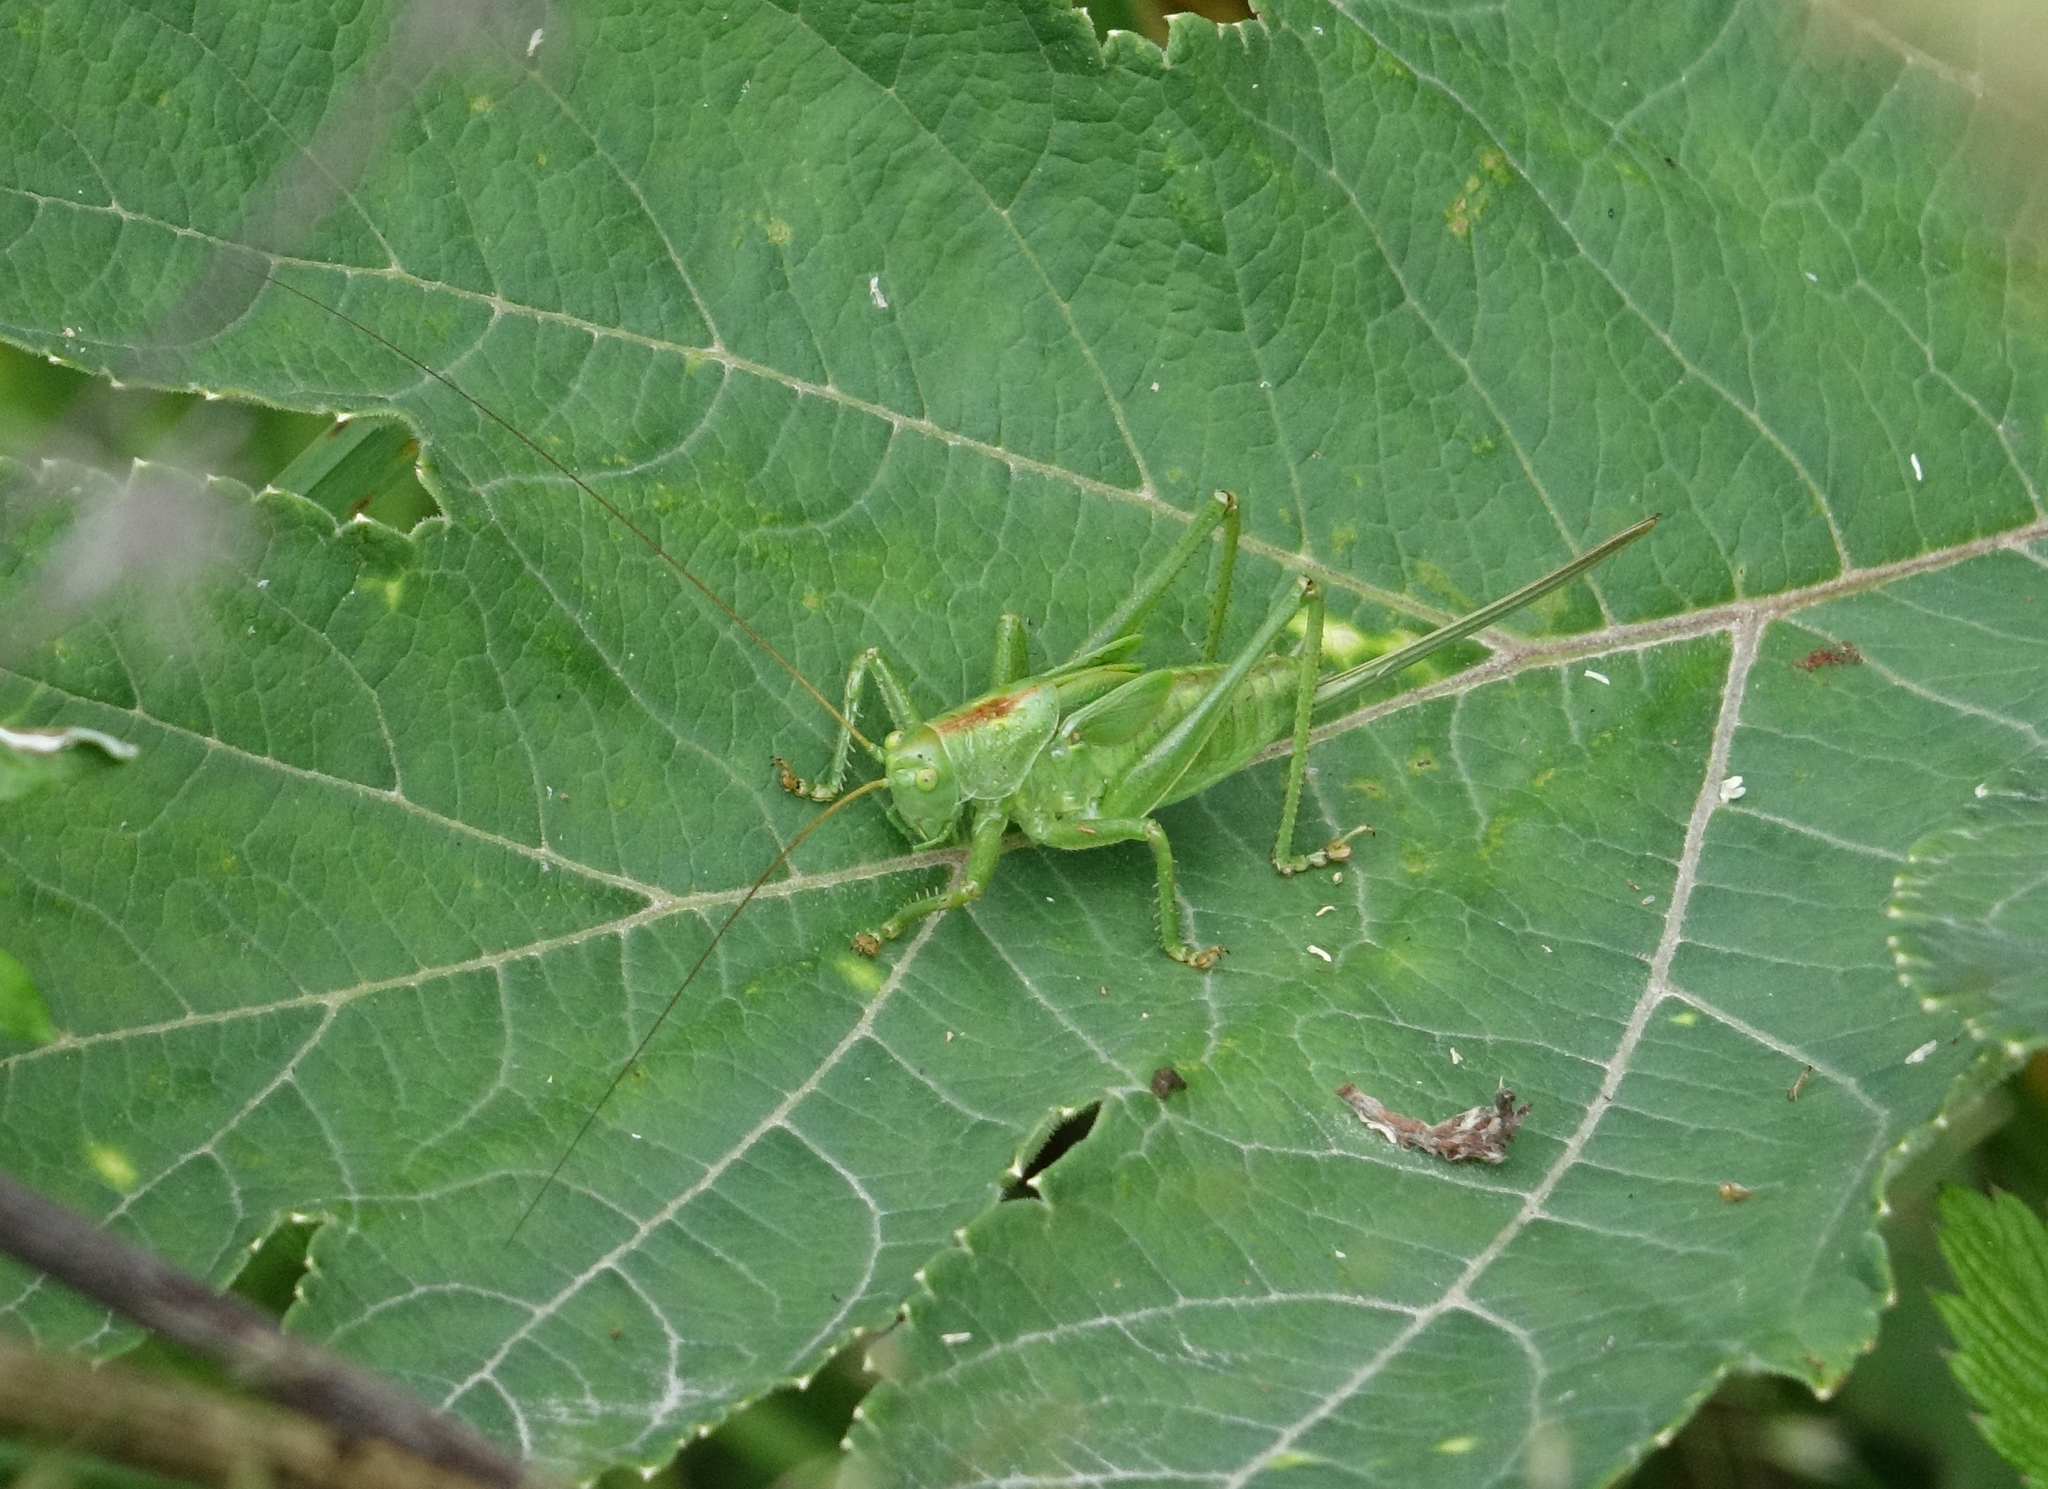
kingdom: Animalia
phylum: Arthropoda
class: Insecta
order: Orthoptera
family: Tettigoniidae
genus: Tettigonia
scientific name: Tettigonia cantans
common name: Upland green bush-cricket
